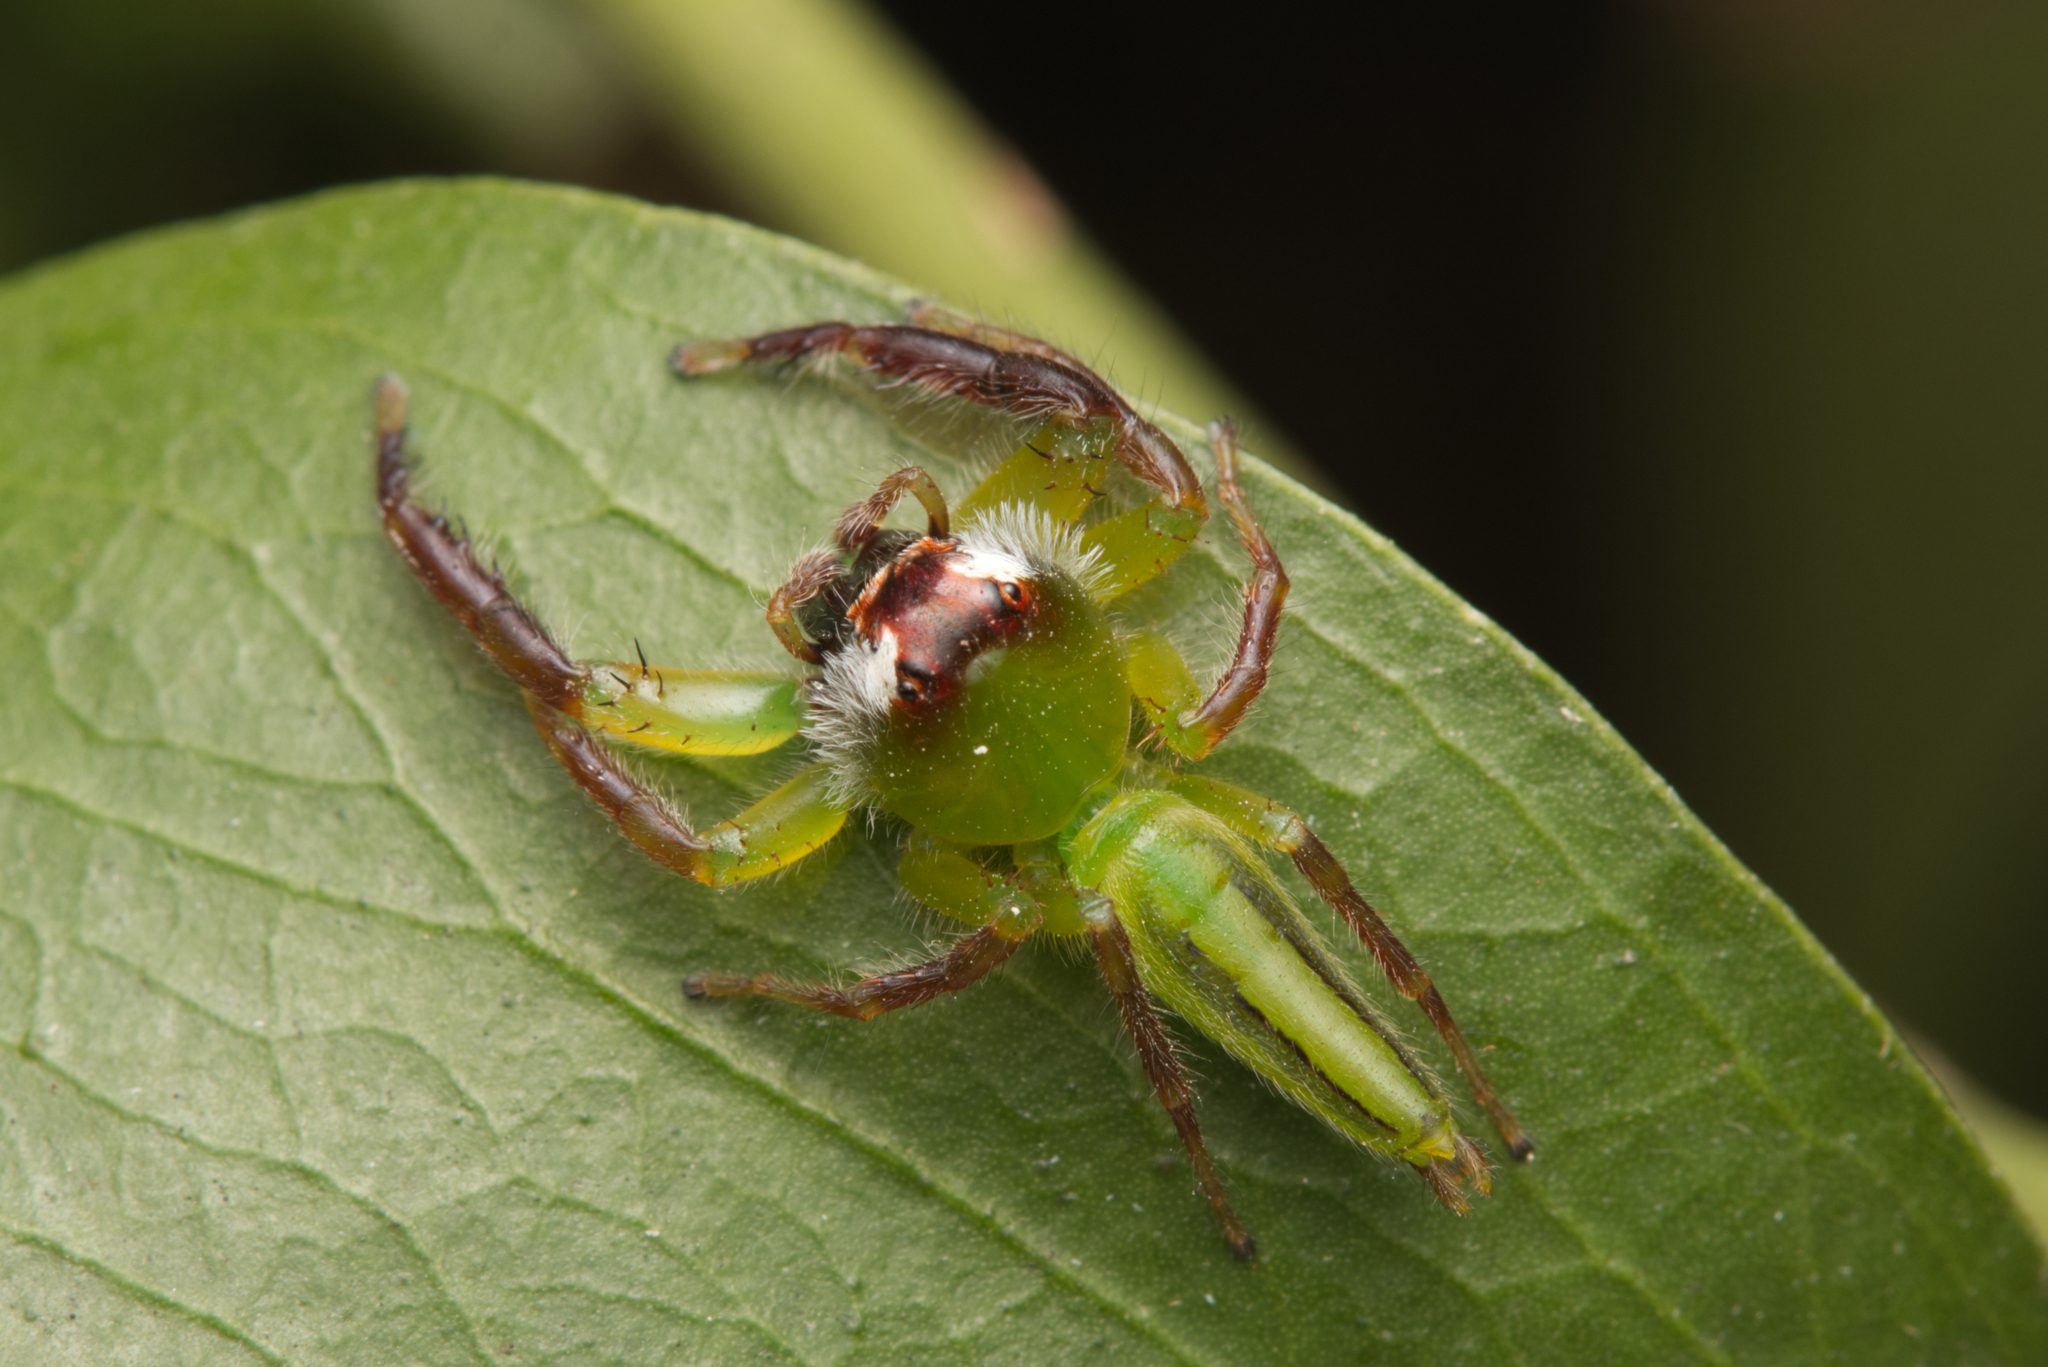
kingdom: Animalia
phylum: Arthropoda
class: Arachnida
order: Araneae
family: Salticidae
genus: Mopsus
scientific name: Mopsus mormon
